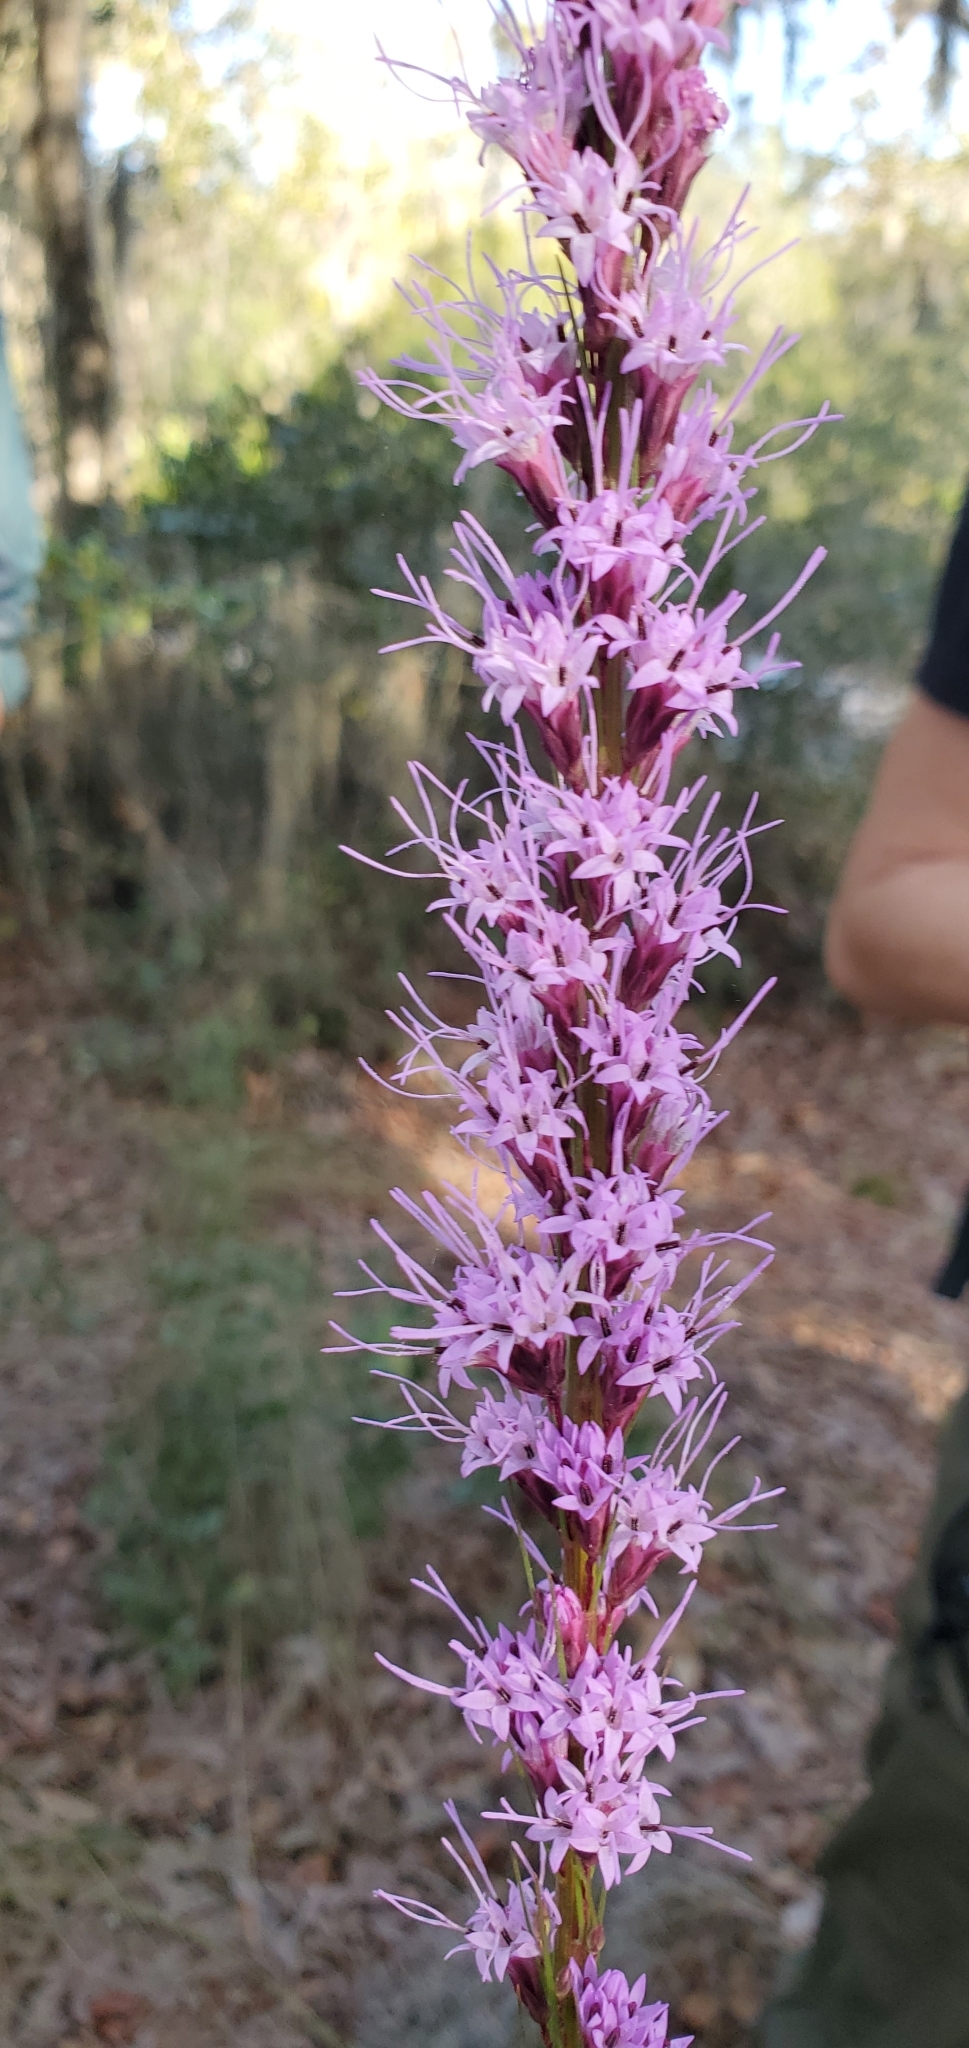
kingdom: Plantae
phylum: Tracheophyta
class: Magnoliopsida
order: Asterales
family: Asteraceae
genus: Liatris
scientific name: Liatris tenuifolia
